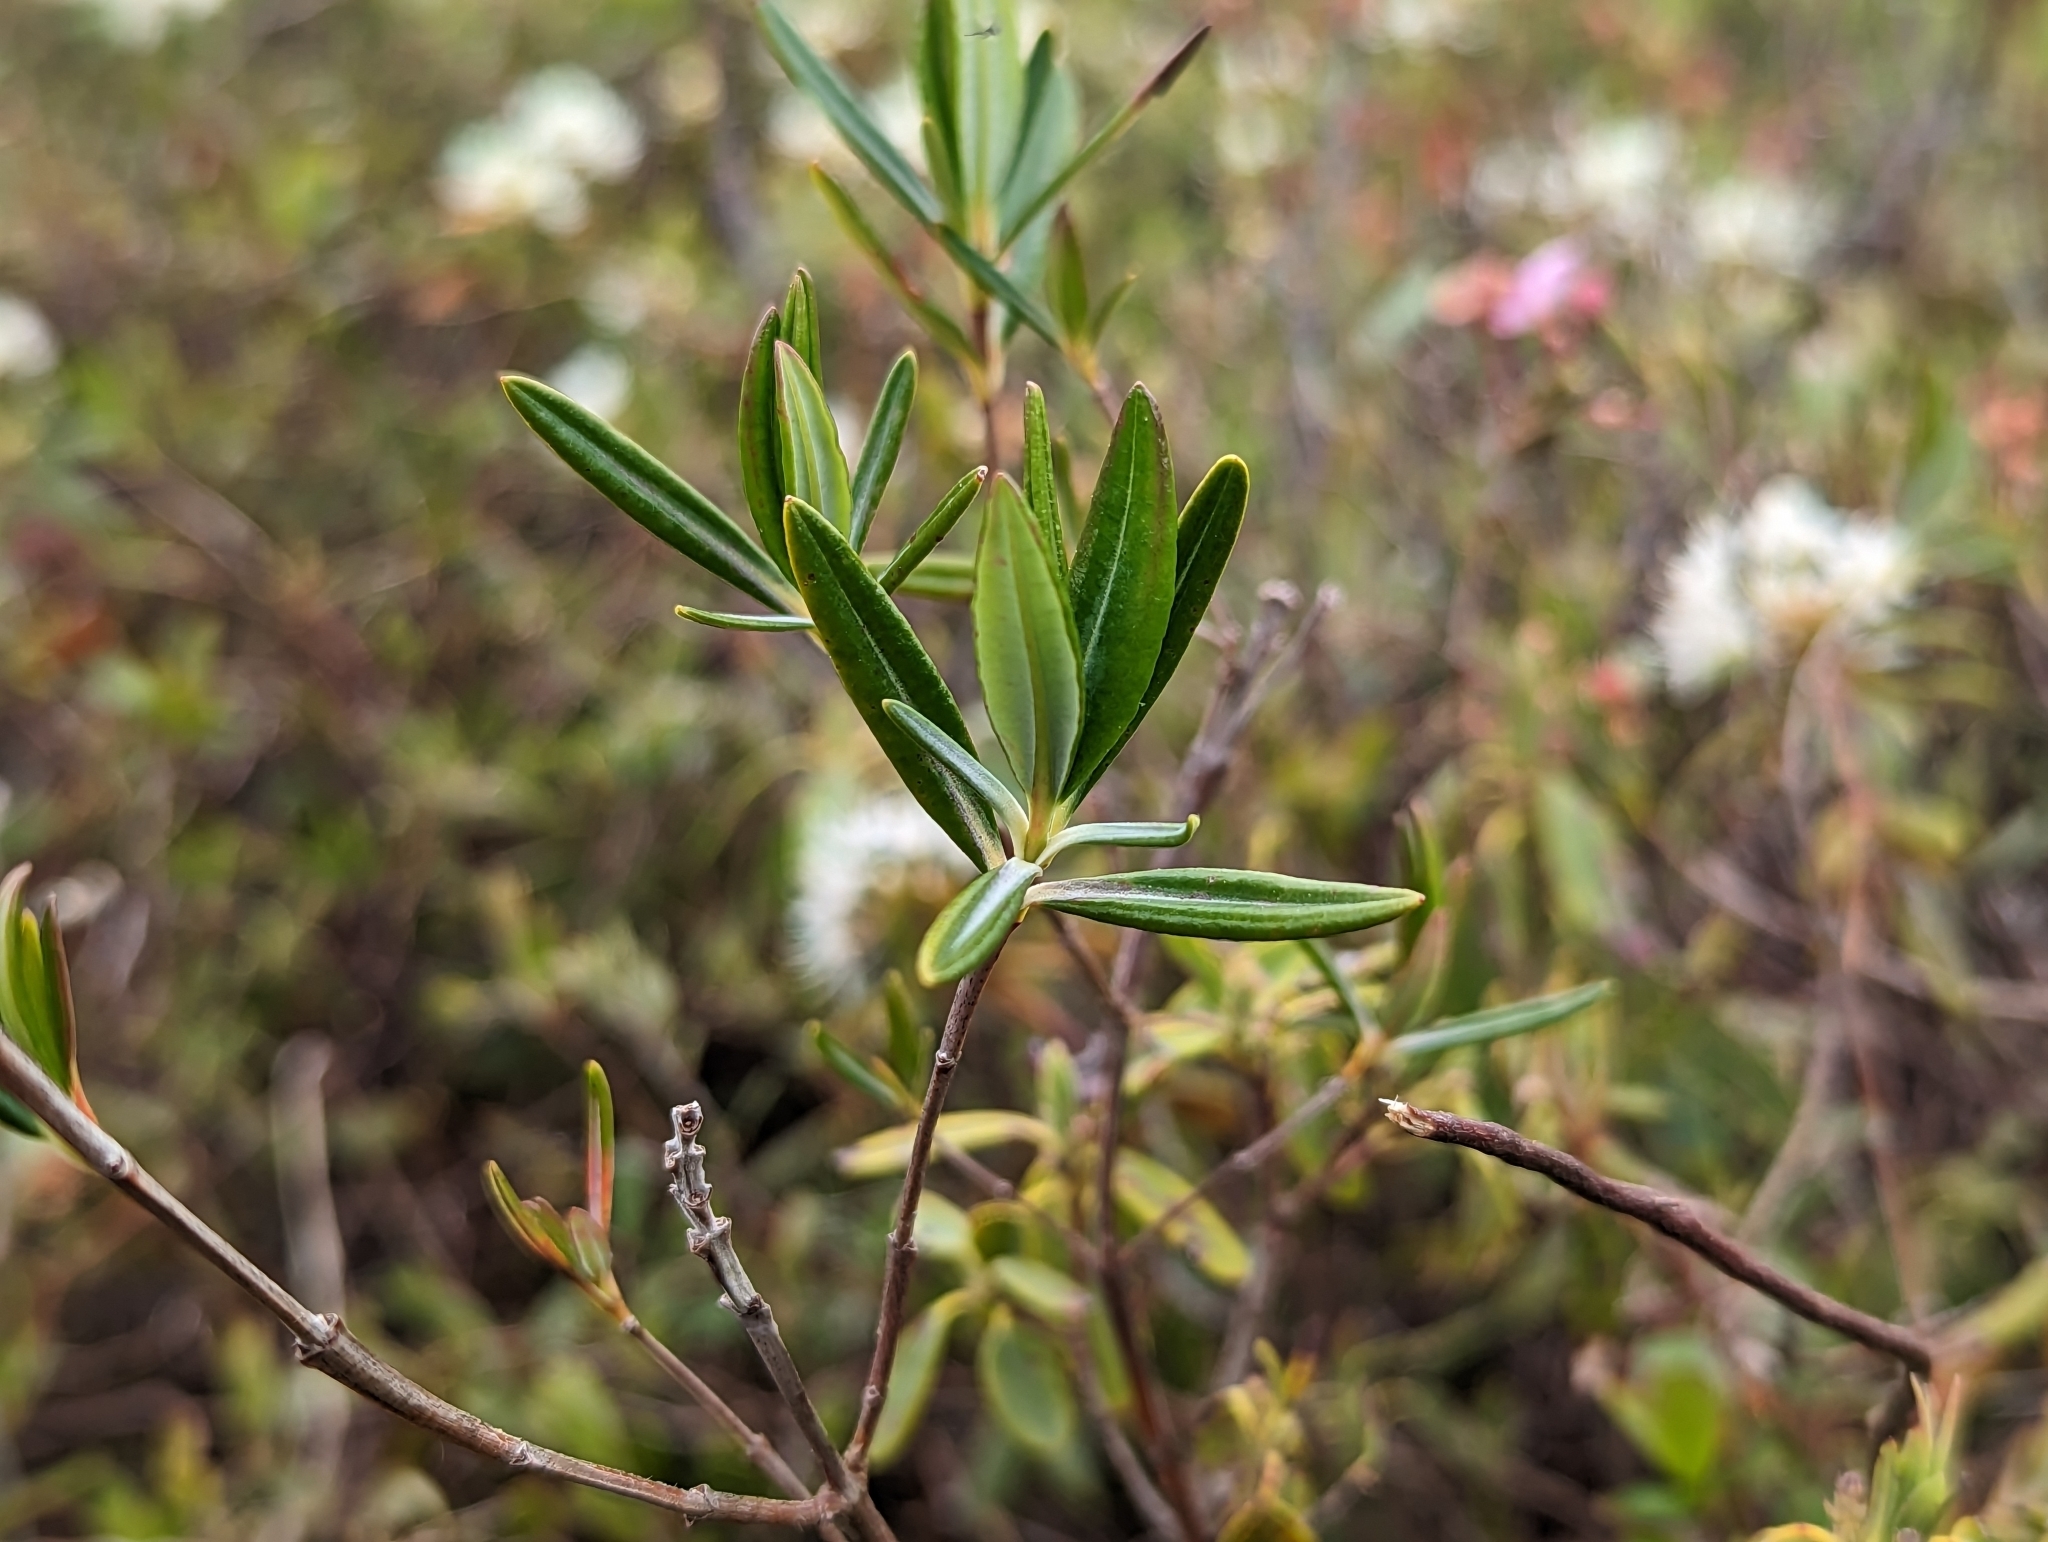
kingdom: Plantae
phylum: Tracheophyta
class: Magnoliopsida
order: Ericales
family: Ericaceae
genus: Kalmia
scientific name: Kalmia polifolia
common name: Bog-laurel
